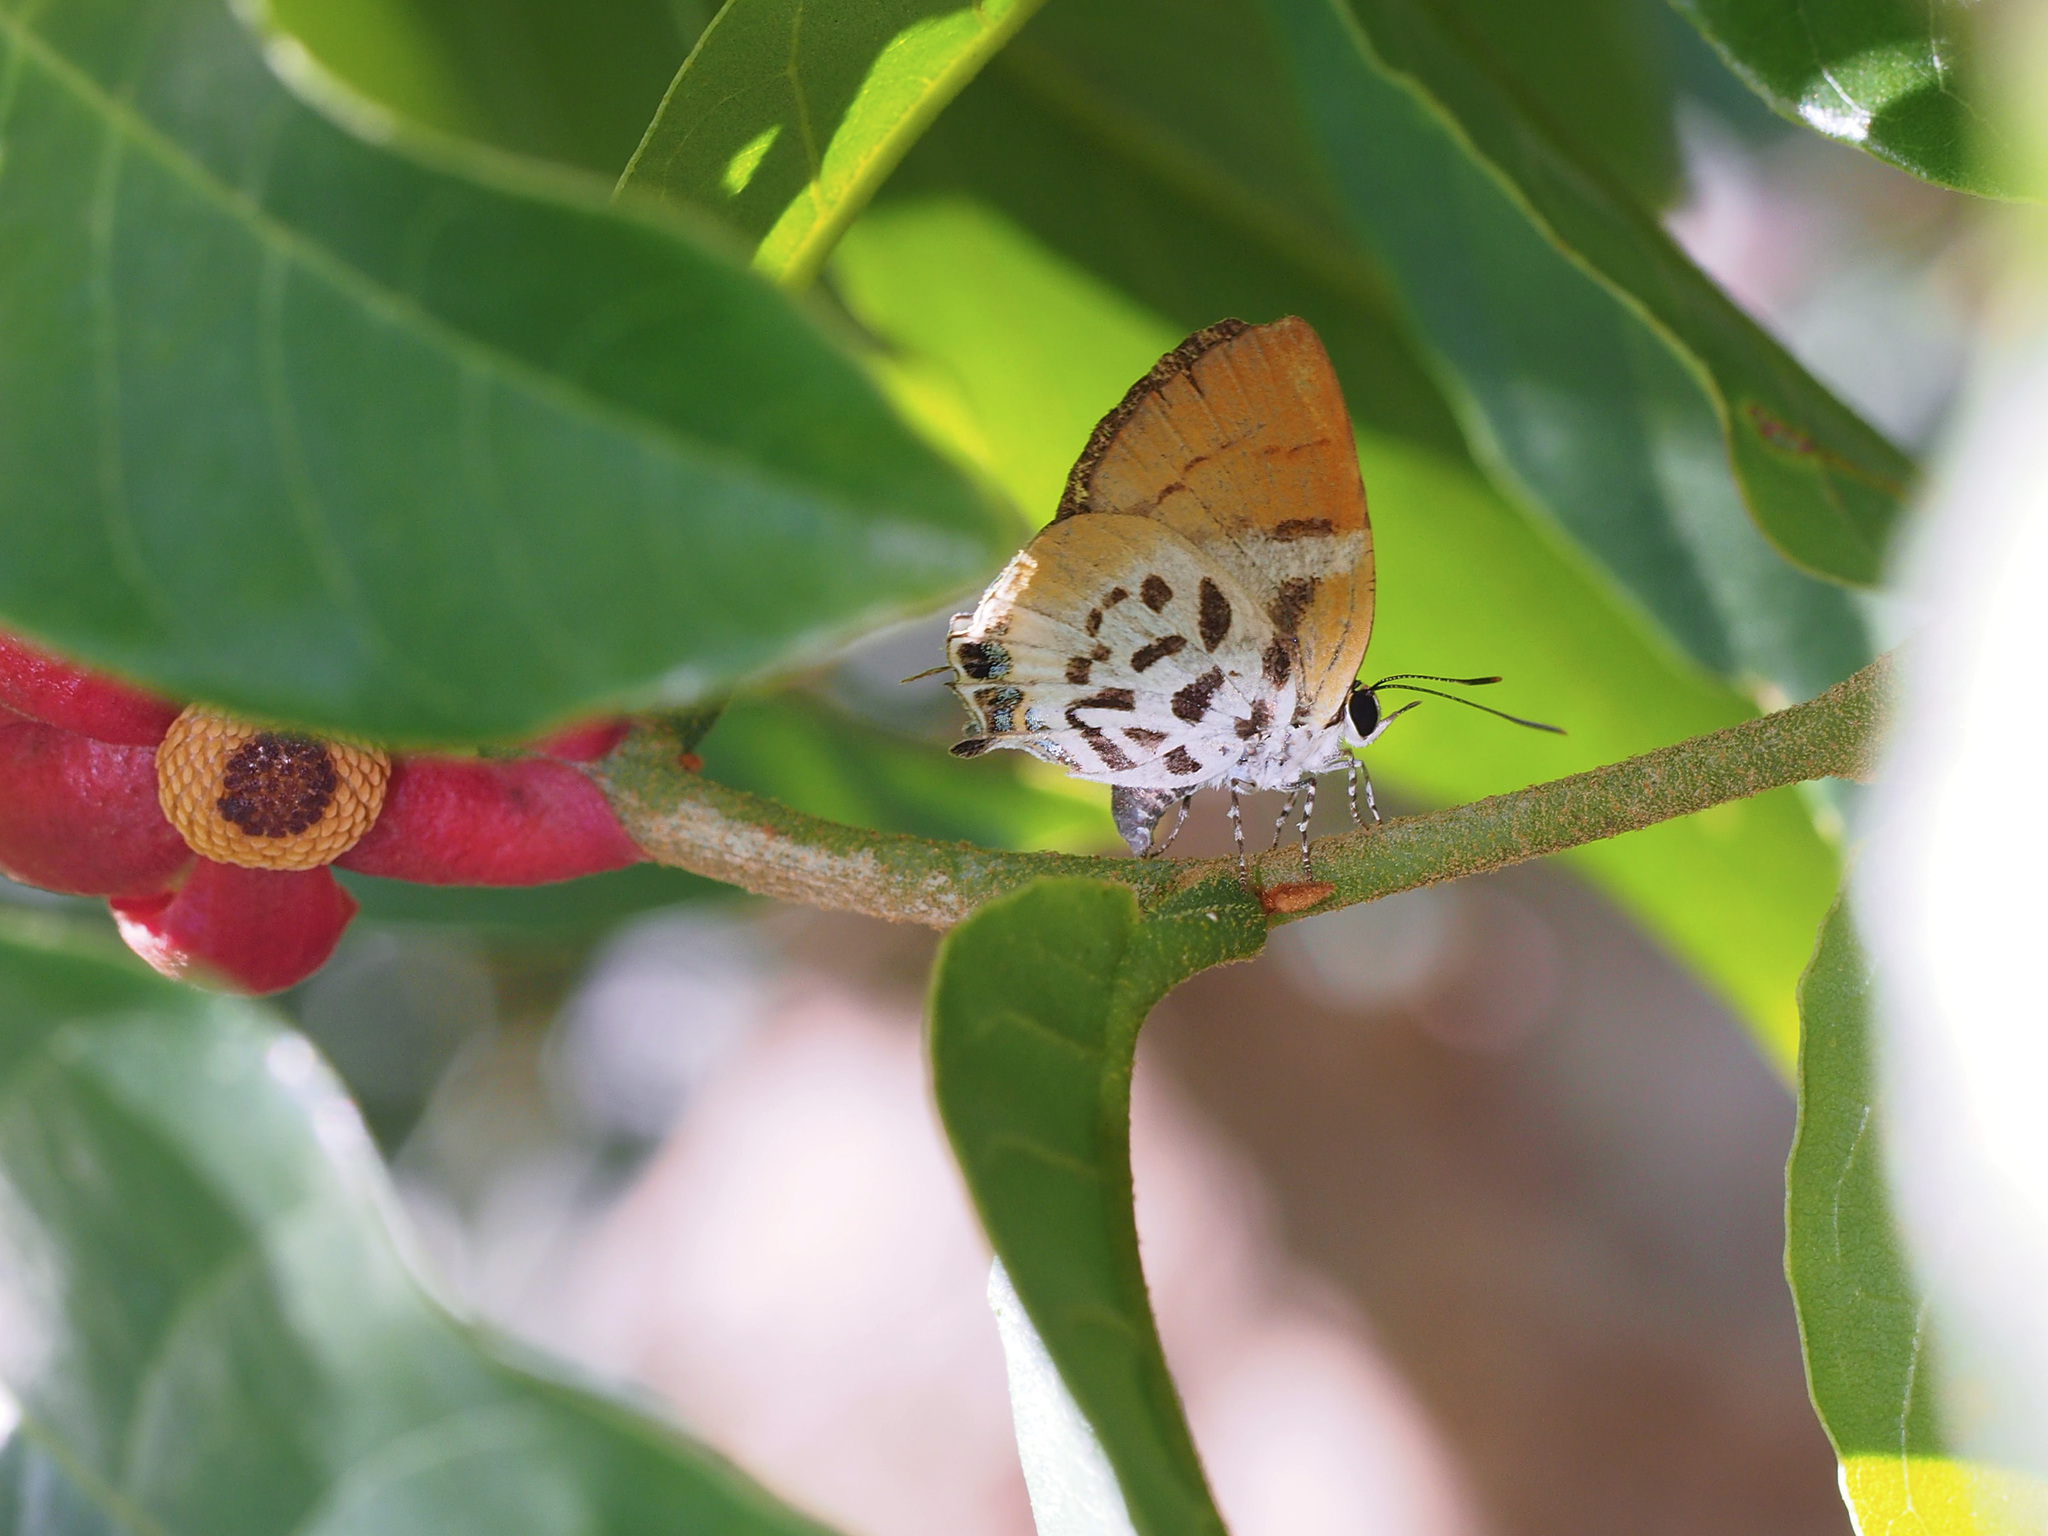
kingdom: Animalia
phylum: Arthropoda
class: Insecta
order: Lepidoptera
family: Lycaenidae
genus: Araotes
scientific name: Araotes lapithis
